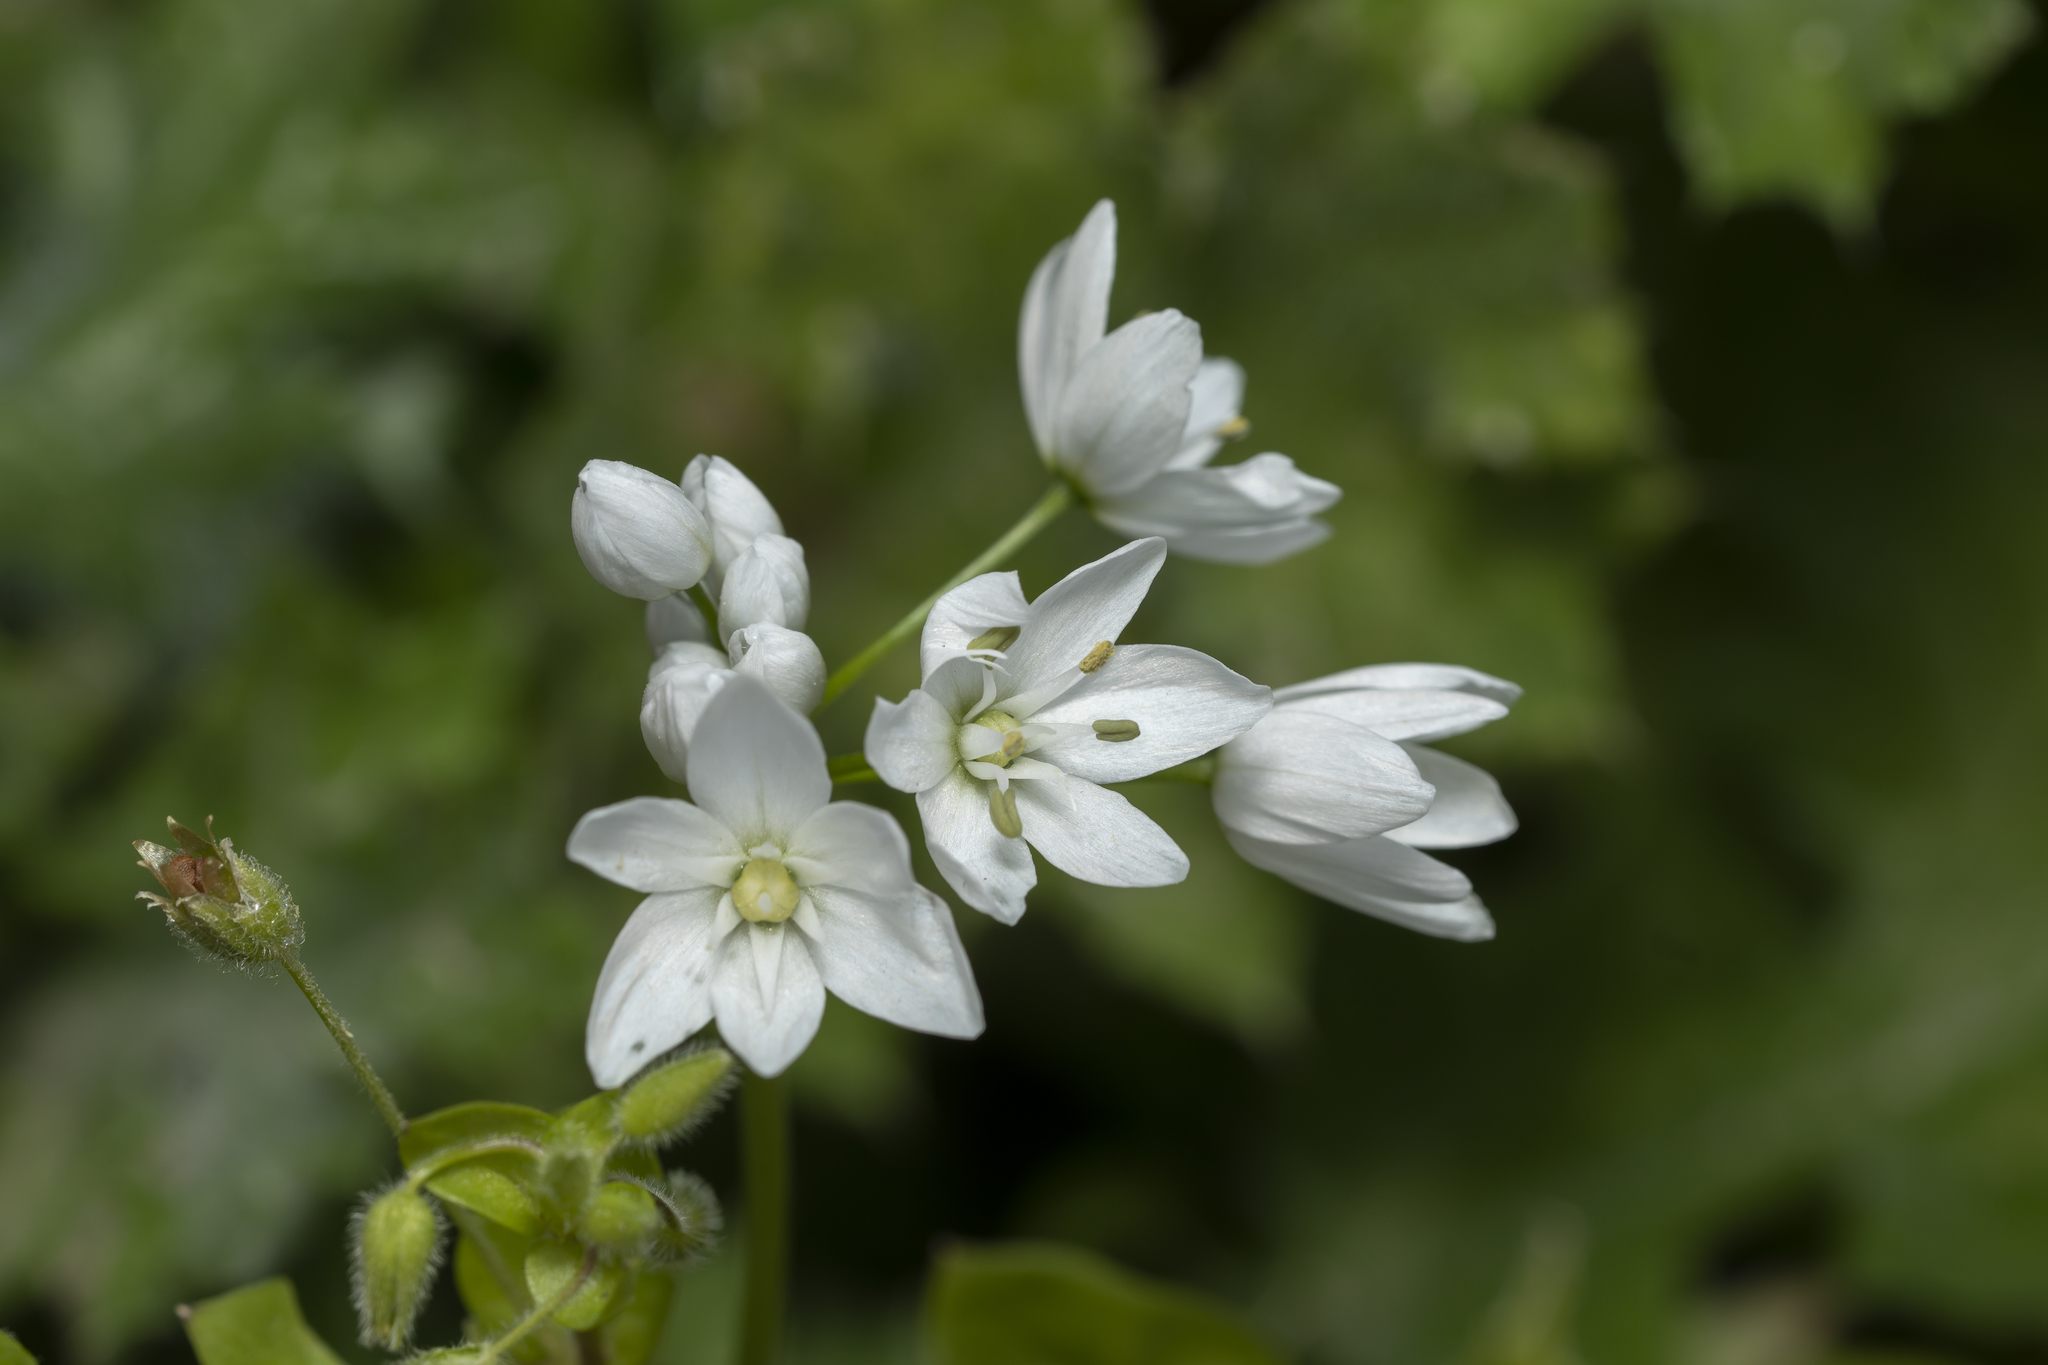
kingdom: Plantae
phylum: Tracheophyta
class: Liliopsida
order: Asparagales
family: Amaryllidaceae
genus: Allium
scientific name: Allium neapolitanum
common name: Neapolitan garlic
